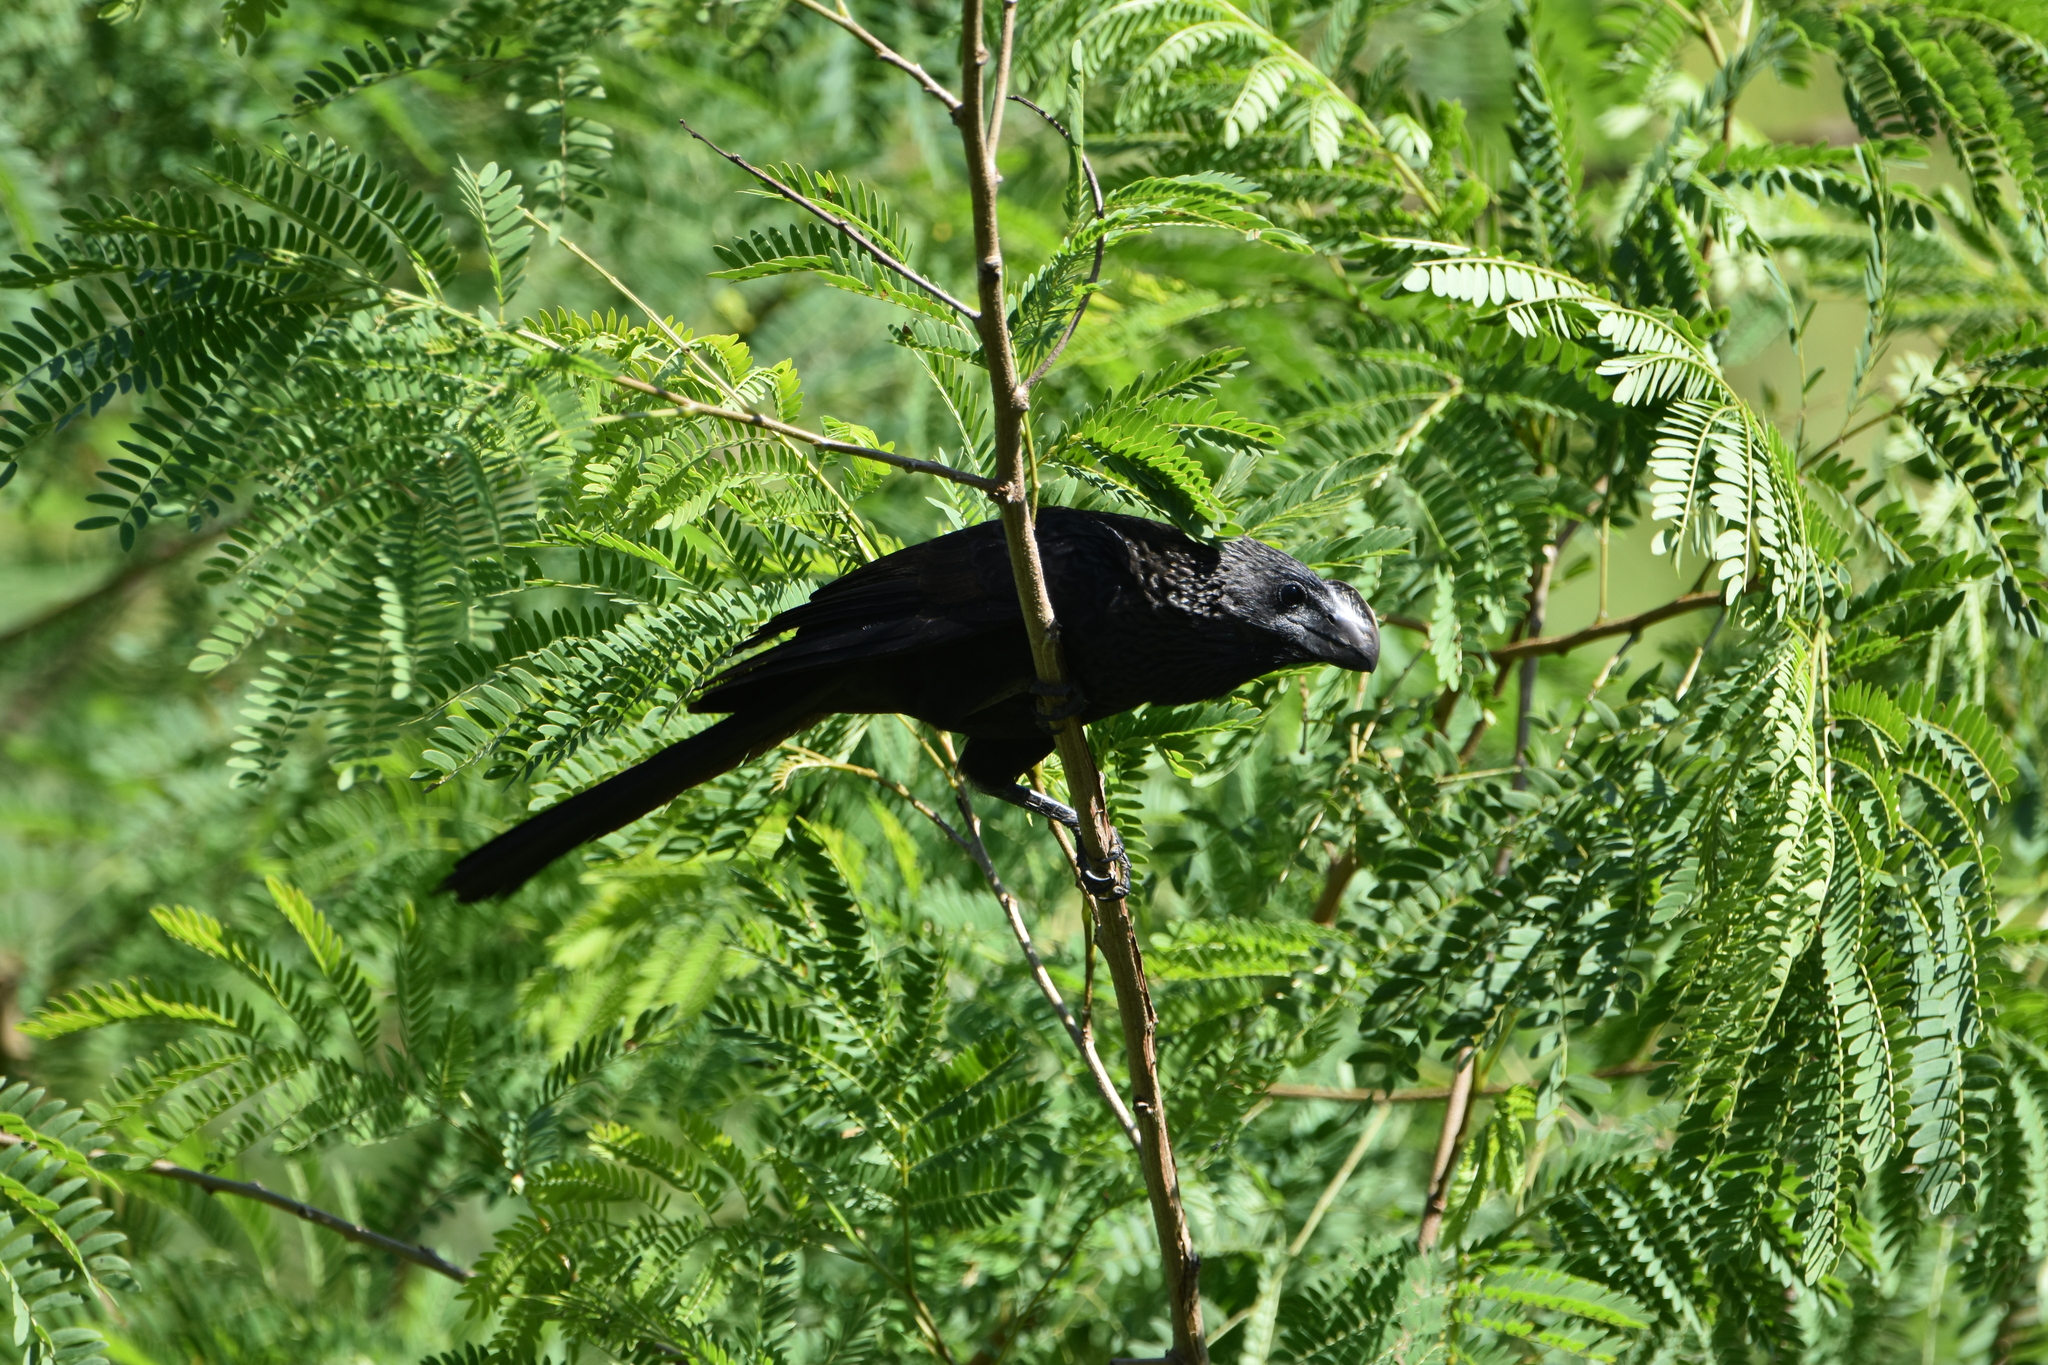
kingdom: Animalia
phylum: Chordata
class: Aves
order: Cuculiformes
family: Cuculidae
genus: Crotophaga
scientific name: Crotophaga ani
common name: Smooth-billed ani
